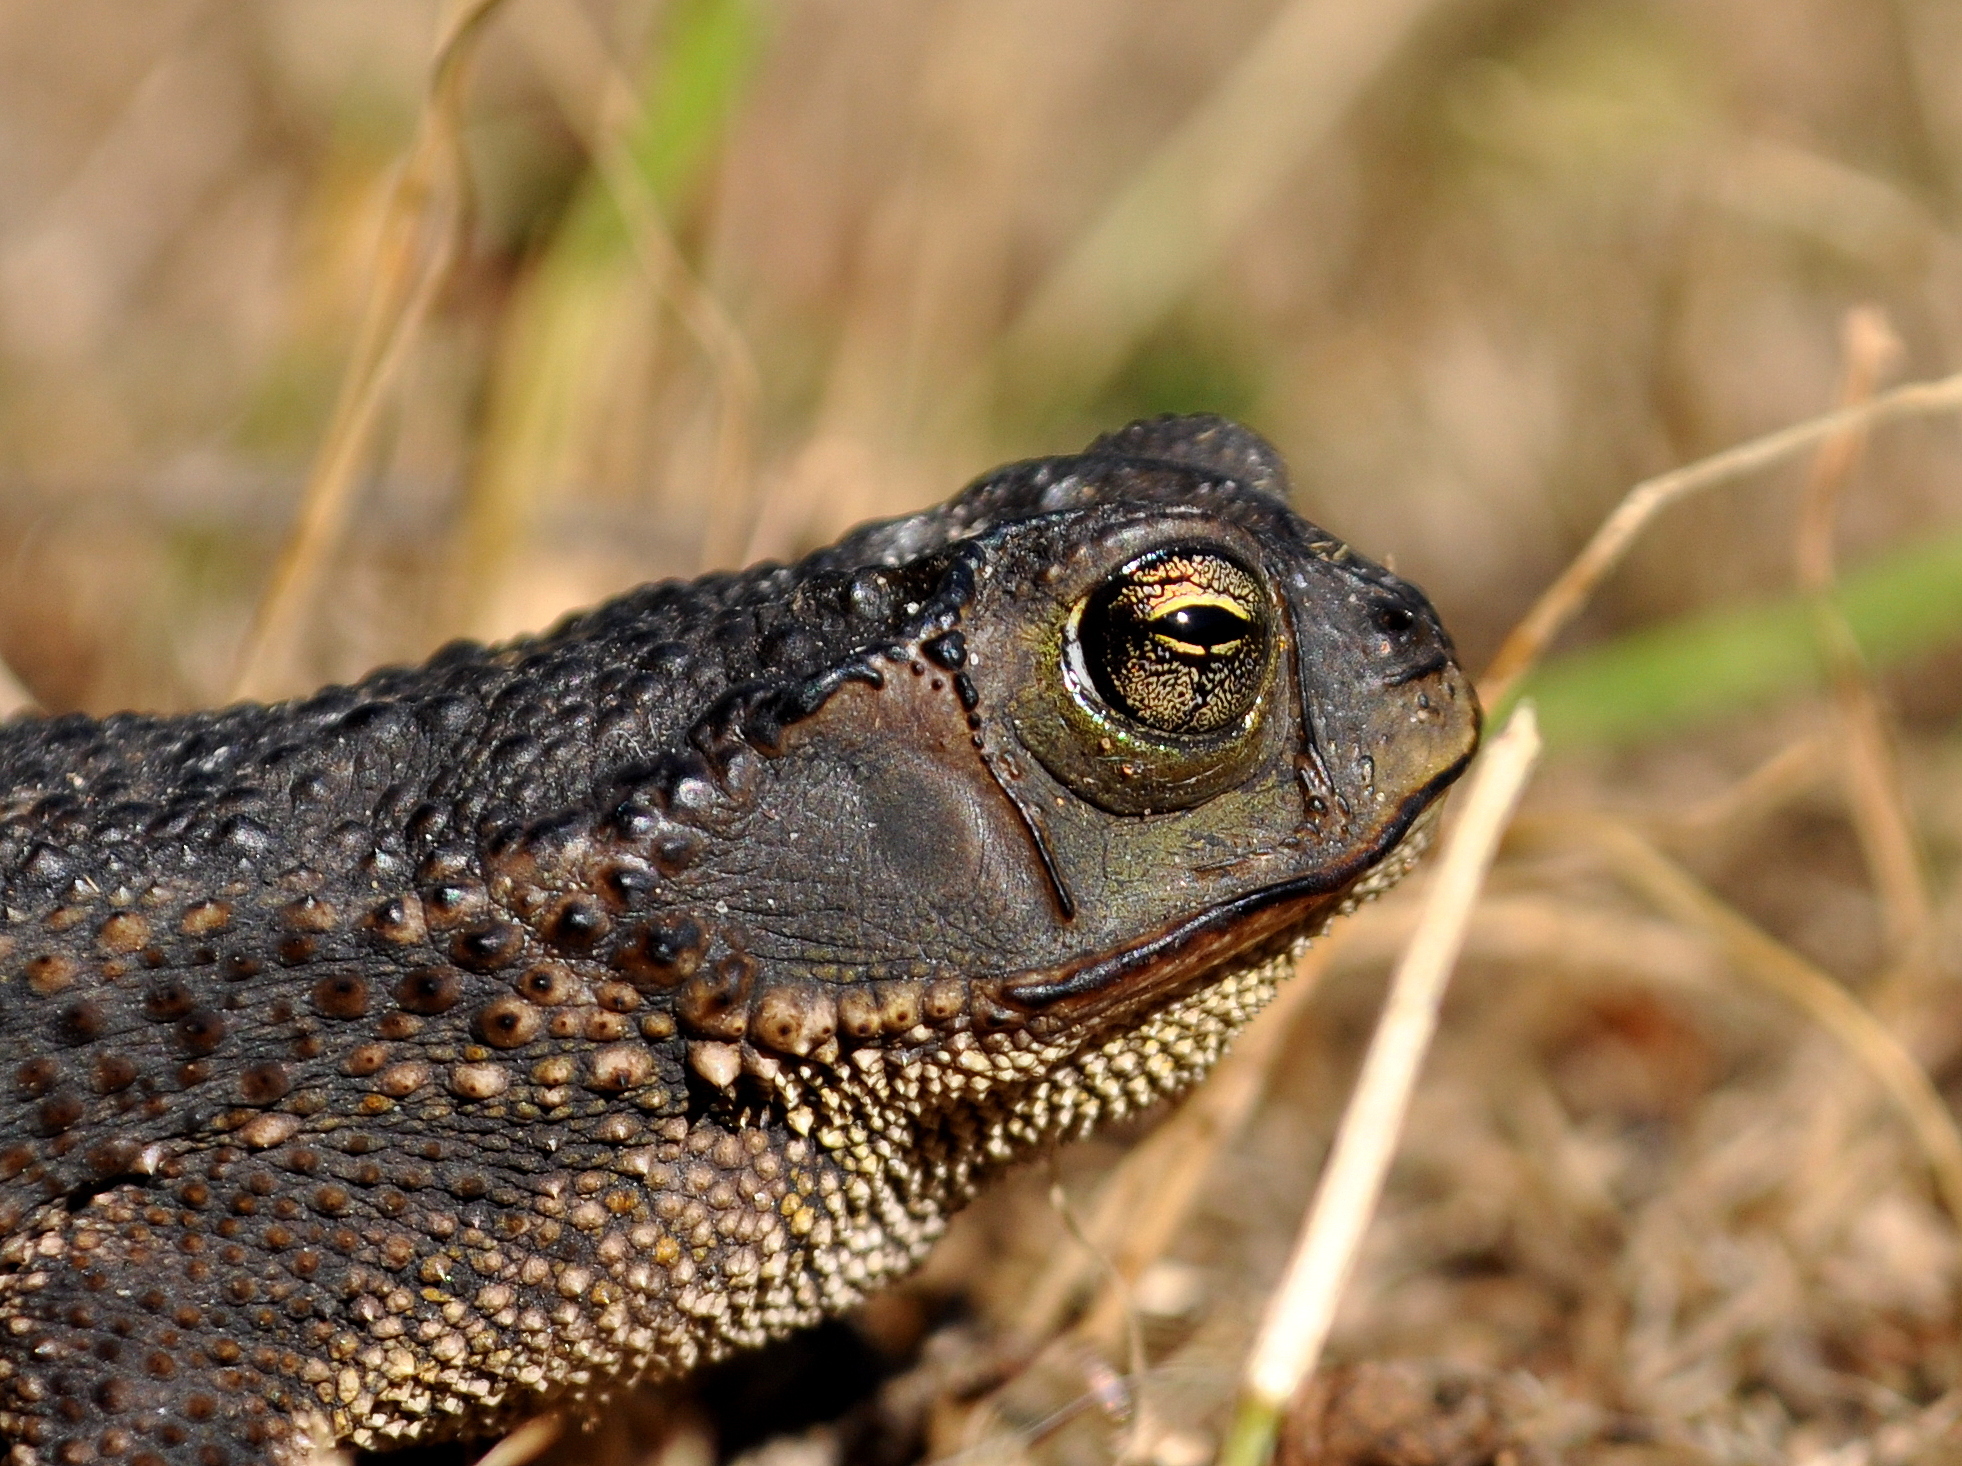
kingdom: Animalia
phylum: Chordata
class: Amphibia
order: Anura
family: Bufonidae
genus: Rhinella
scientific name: Rhinella dorbignyi
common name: D´orbigny’s toad
